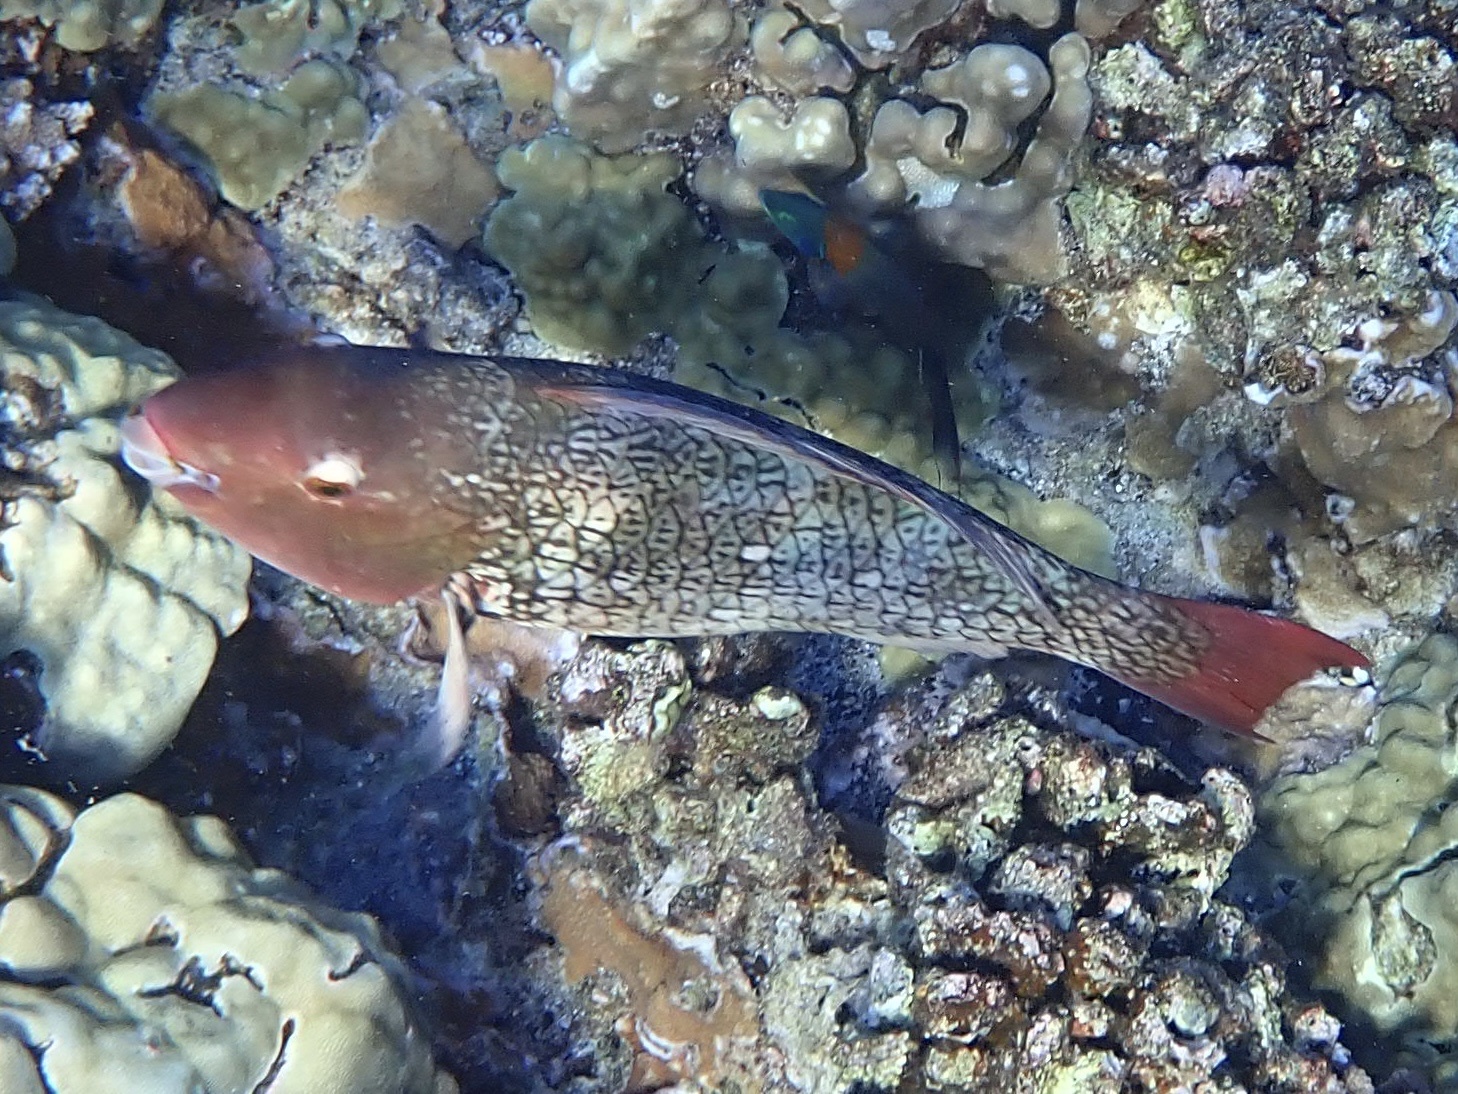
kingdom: Animalia
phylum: Chordata
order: Perciformes
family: Scaridae
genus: Scarus
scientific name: Scarus rubroviolaceus
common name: Ember parrotfish
